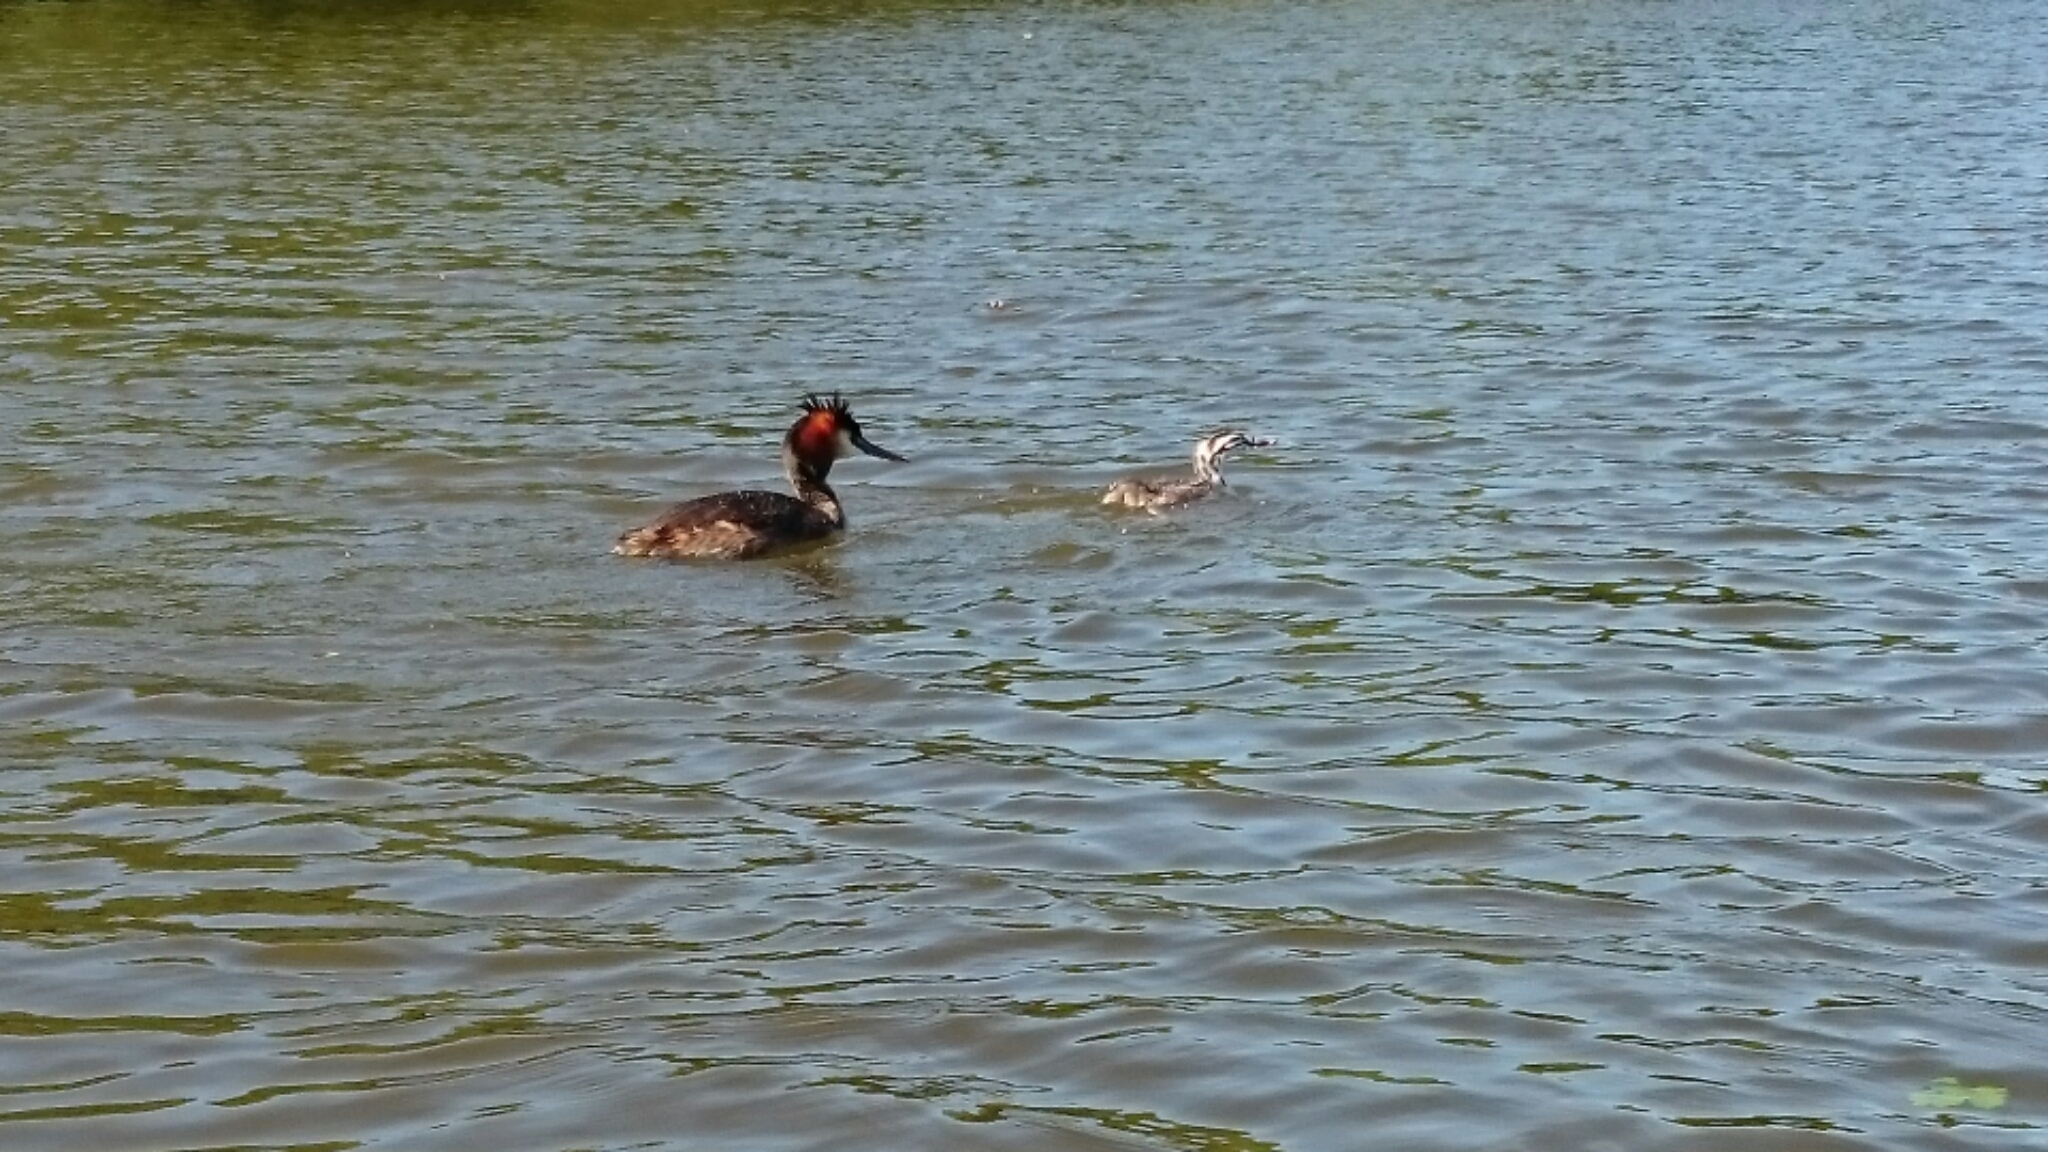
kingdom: Animalia
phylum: Chordata
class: Aves
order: Podicipediformes
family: Podicipedidae
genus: Podiceps
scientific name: Podiceps cristatus
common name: Great crested grebe
